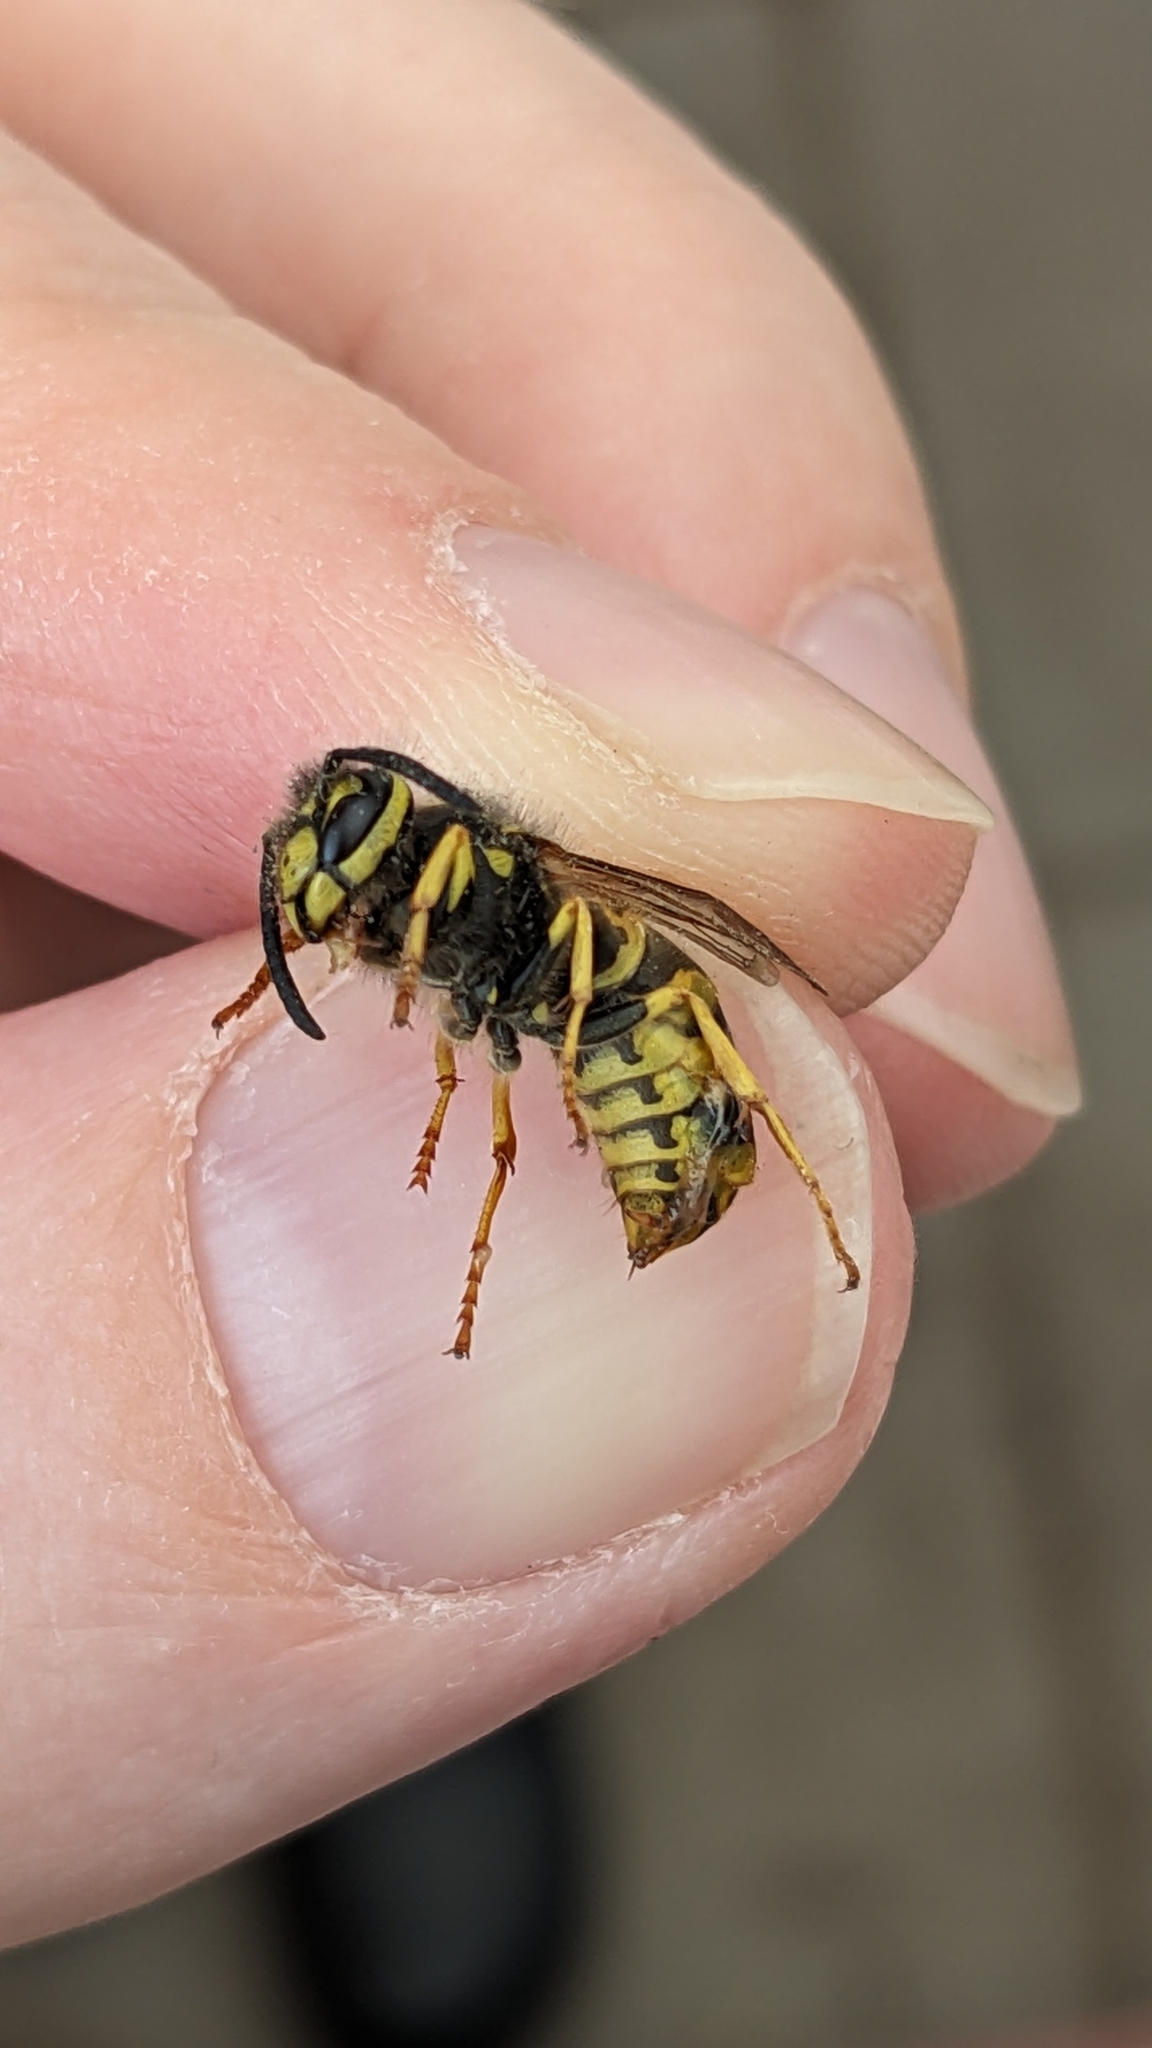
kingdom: Animalia
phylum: Arthropoda
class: Insecta
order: Hymenoptera
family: Vespidae
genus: Vespula
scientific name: Vespula germanica
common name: German wasp
